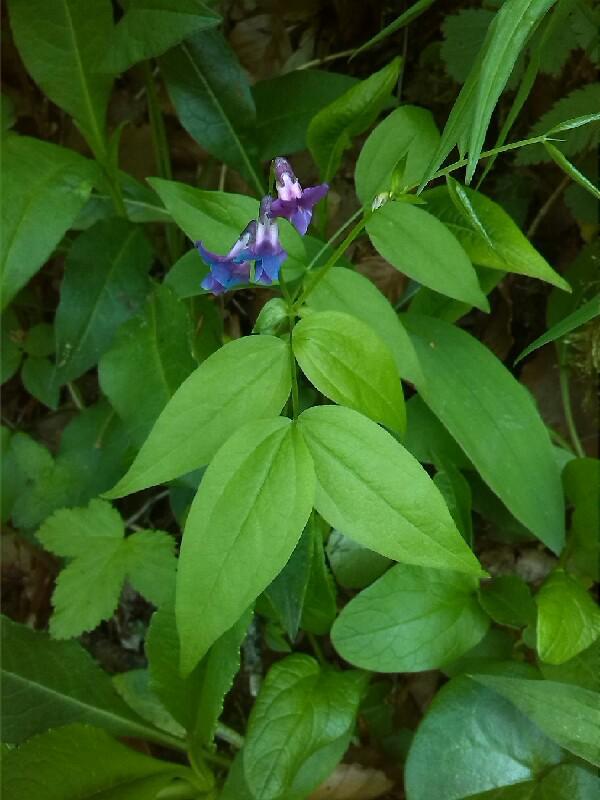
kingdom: Plantae
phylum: Tracheophyta
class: Magnoliopsida
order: Fabales
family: Fabaceae
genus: Lathyrus
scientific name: Lathyrus vernus
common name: Spring pea
